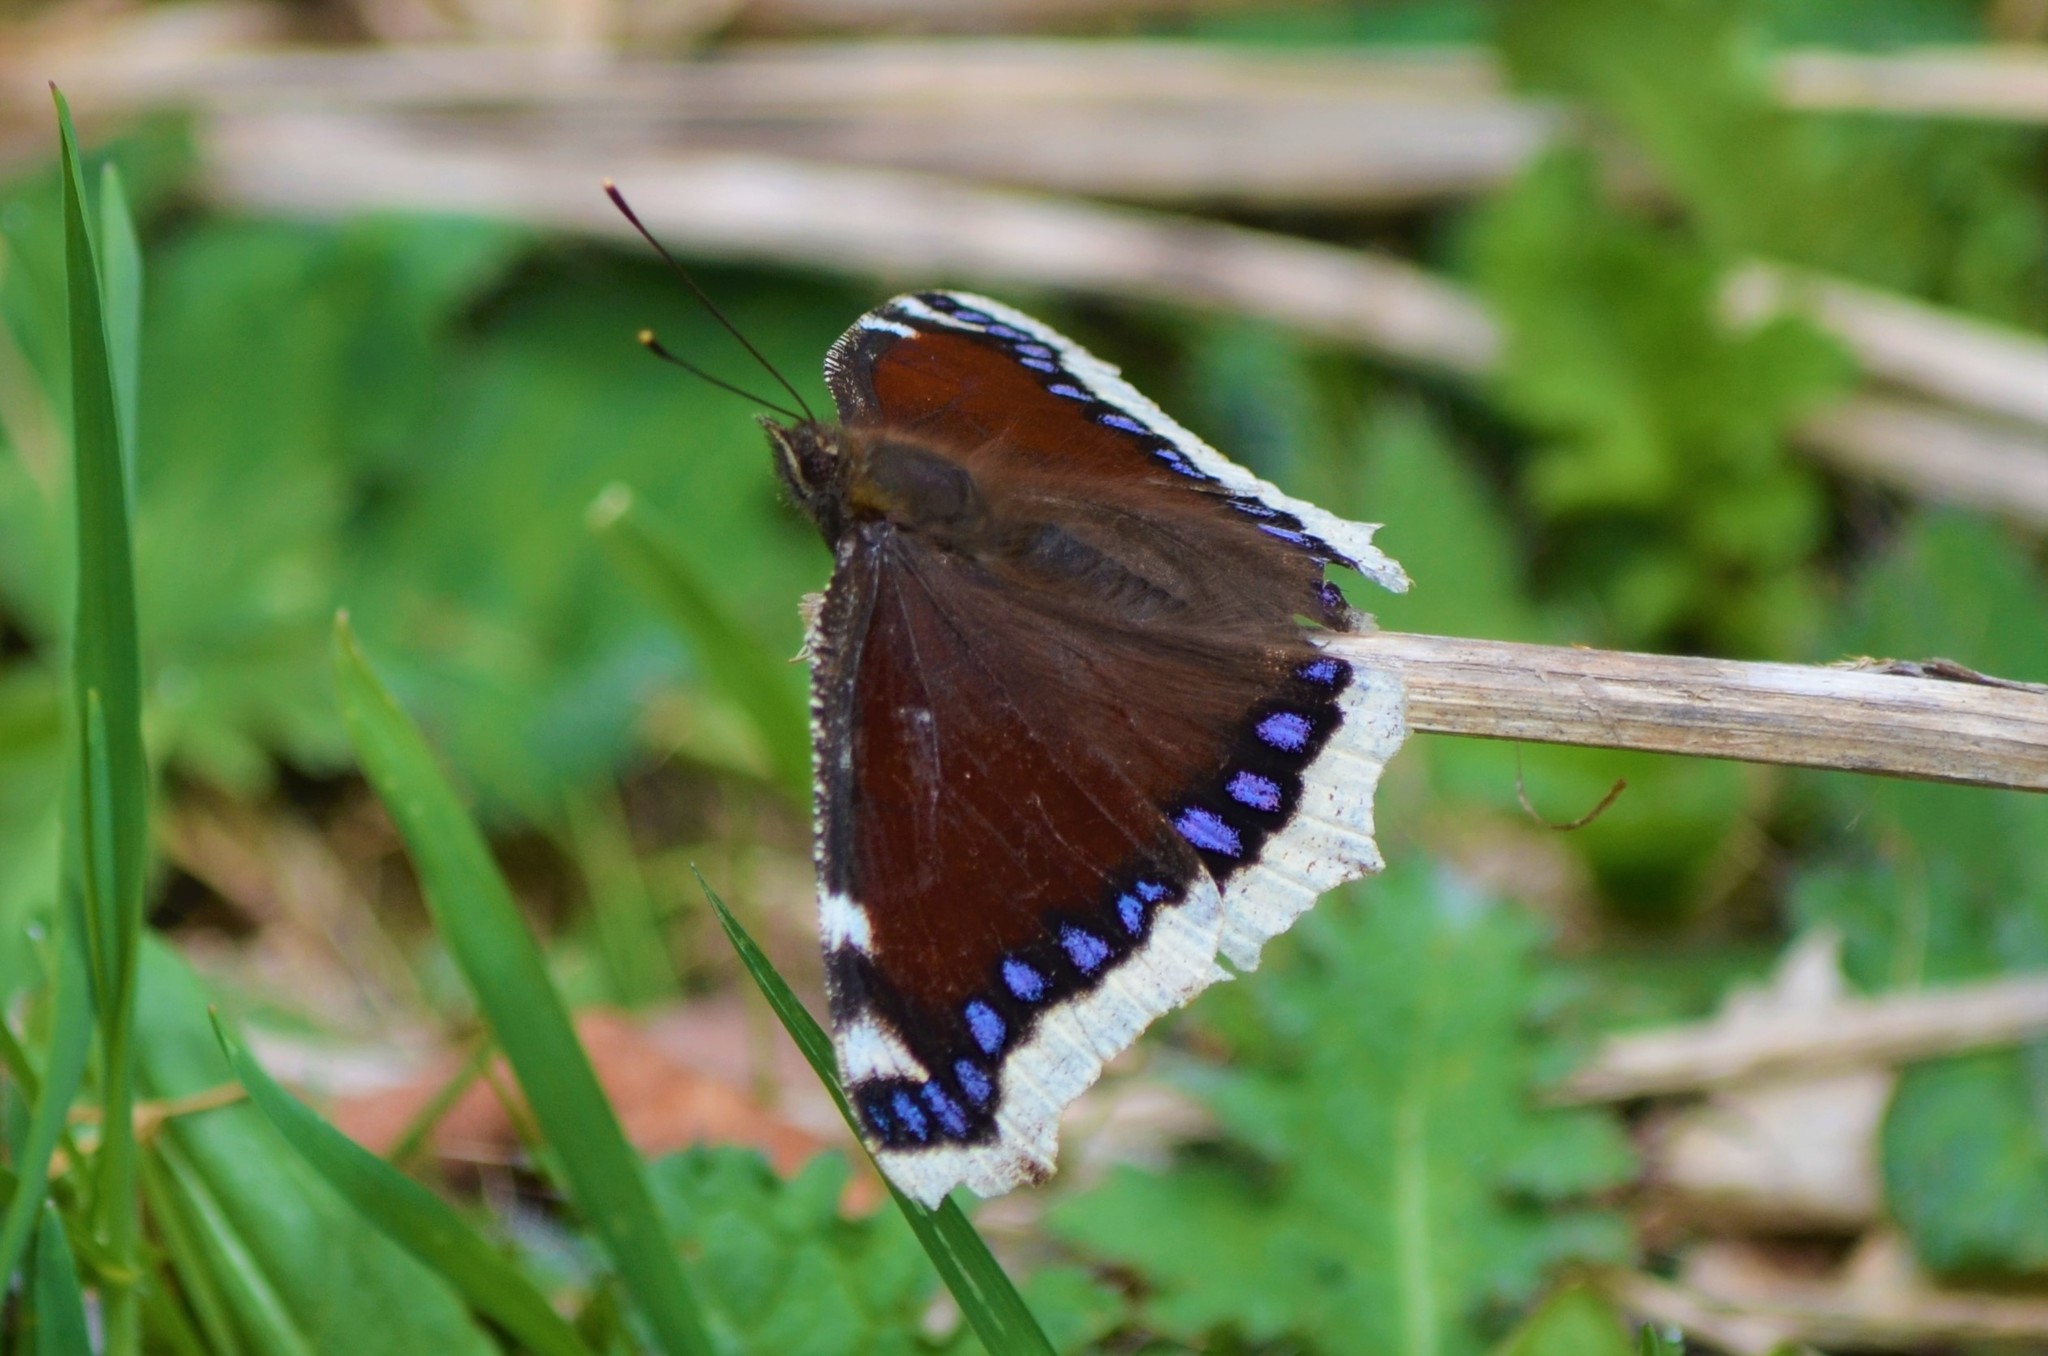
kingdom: Animalia
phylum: Arthropoda
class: Insecta
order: Lepidoptera
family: Nymphalidae
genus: Nymphalis
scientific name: Nymphalis antiopa
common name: Camberwell beauty
